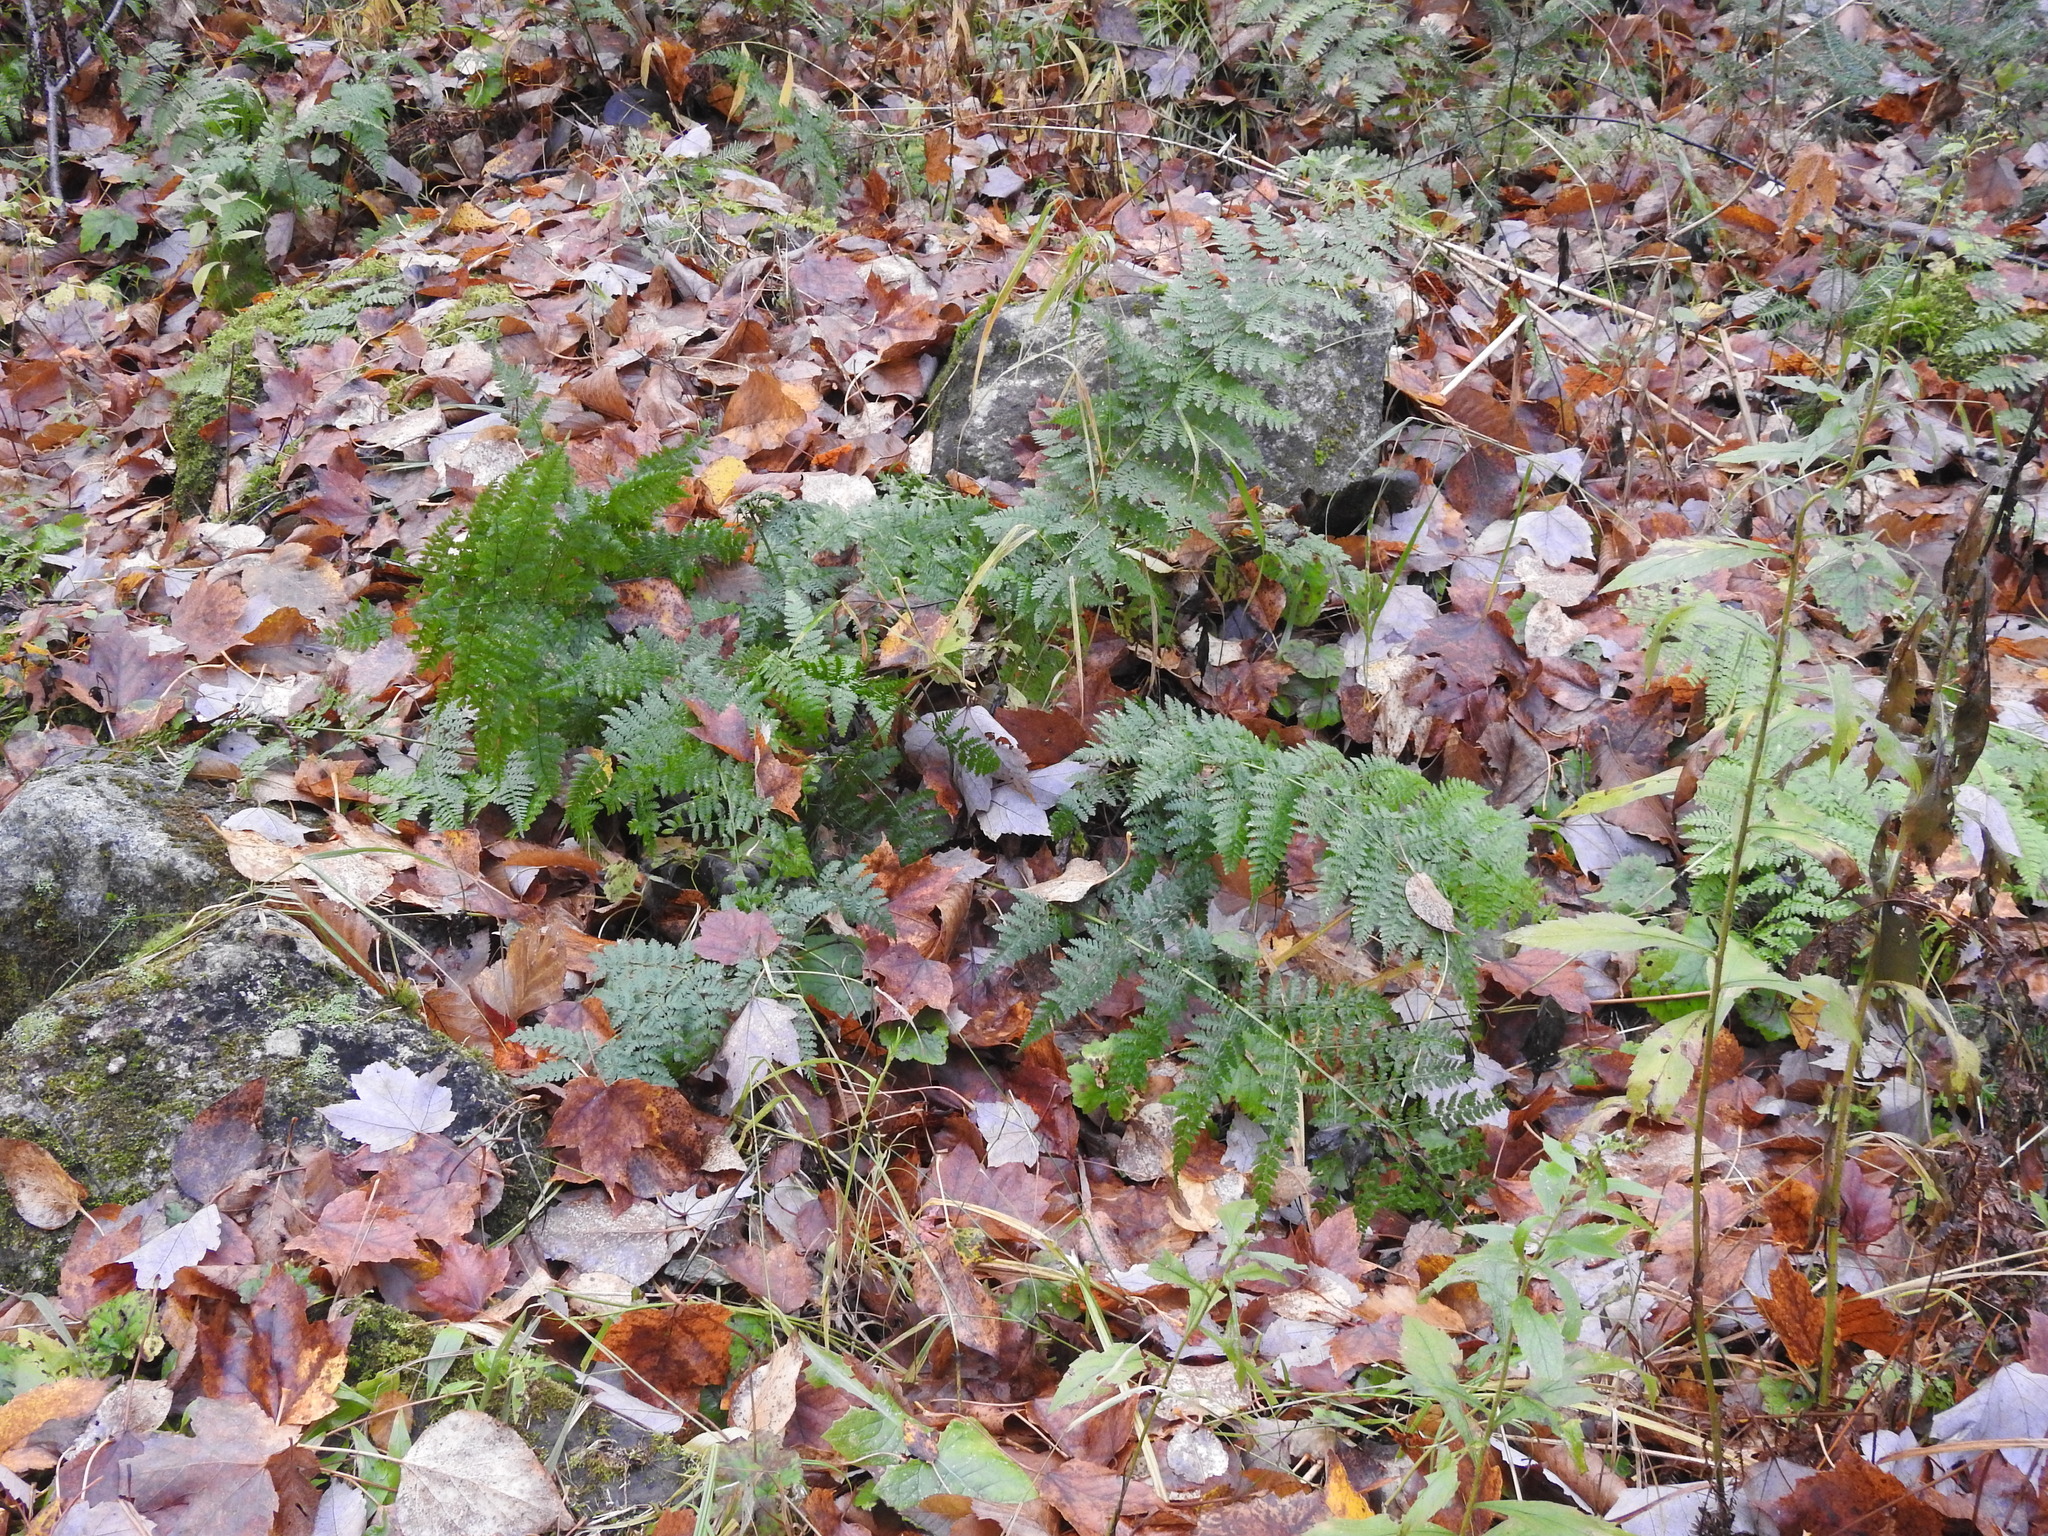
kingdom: Plantae
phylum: Tracheophyta
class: Polypodiopsida
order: Polypodiales
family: Dryopteridaceae
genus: Dryopteris
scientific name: Dryopteris intermedia
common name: Evergreen wood fern
